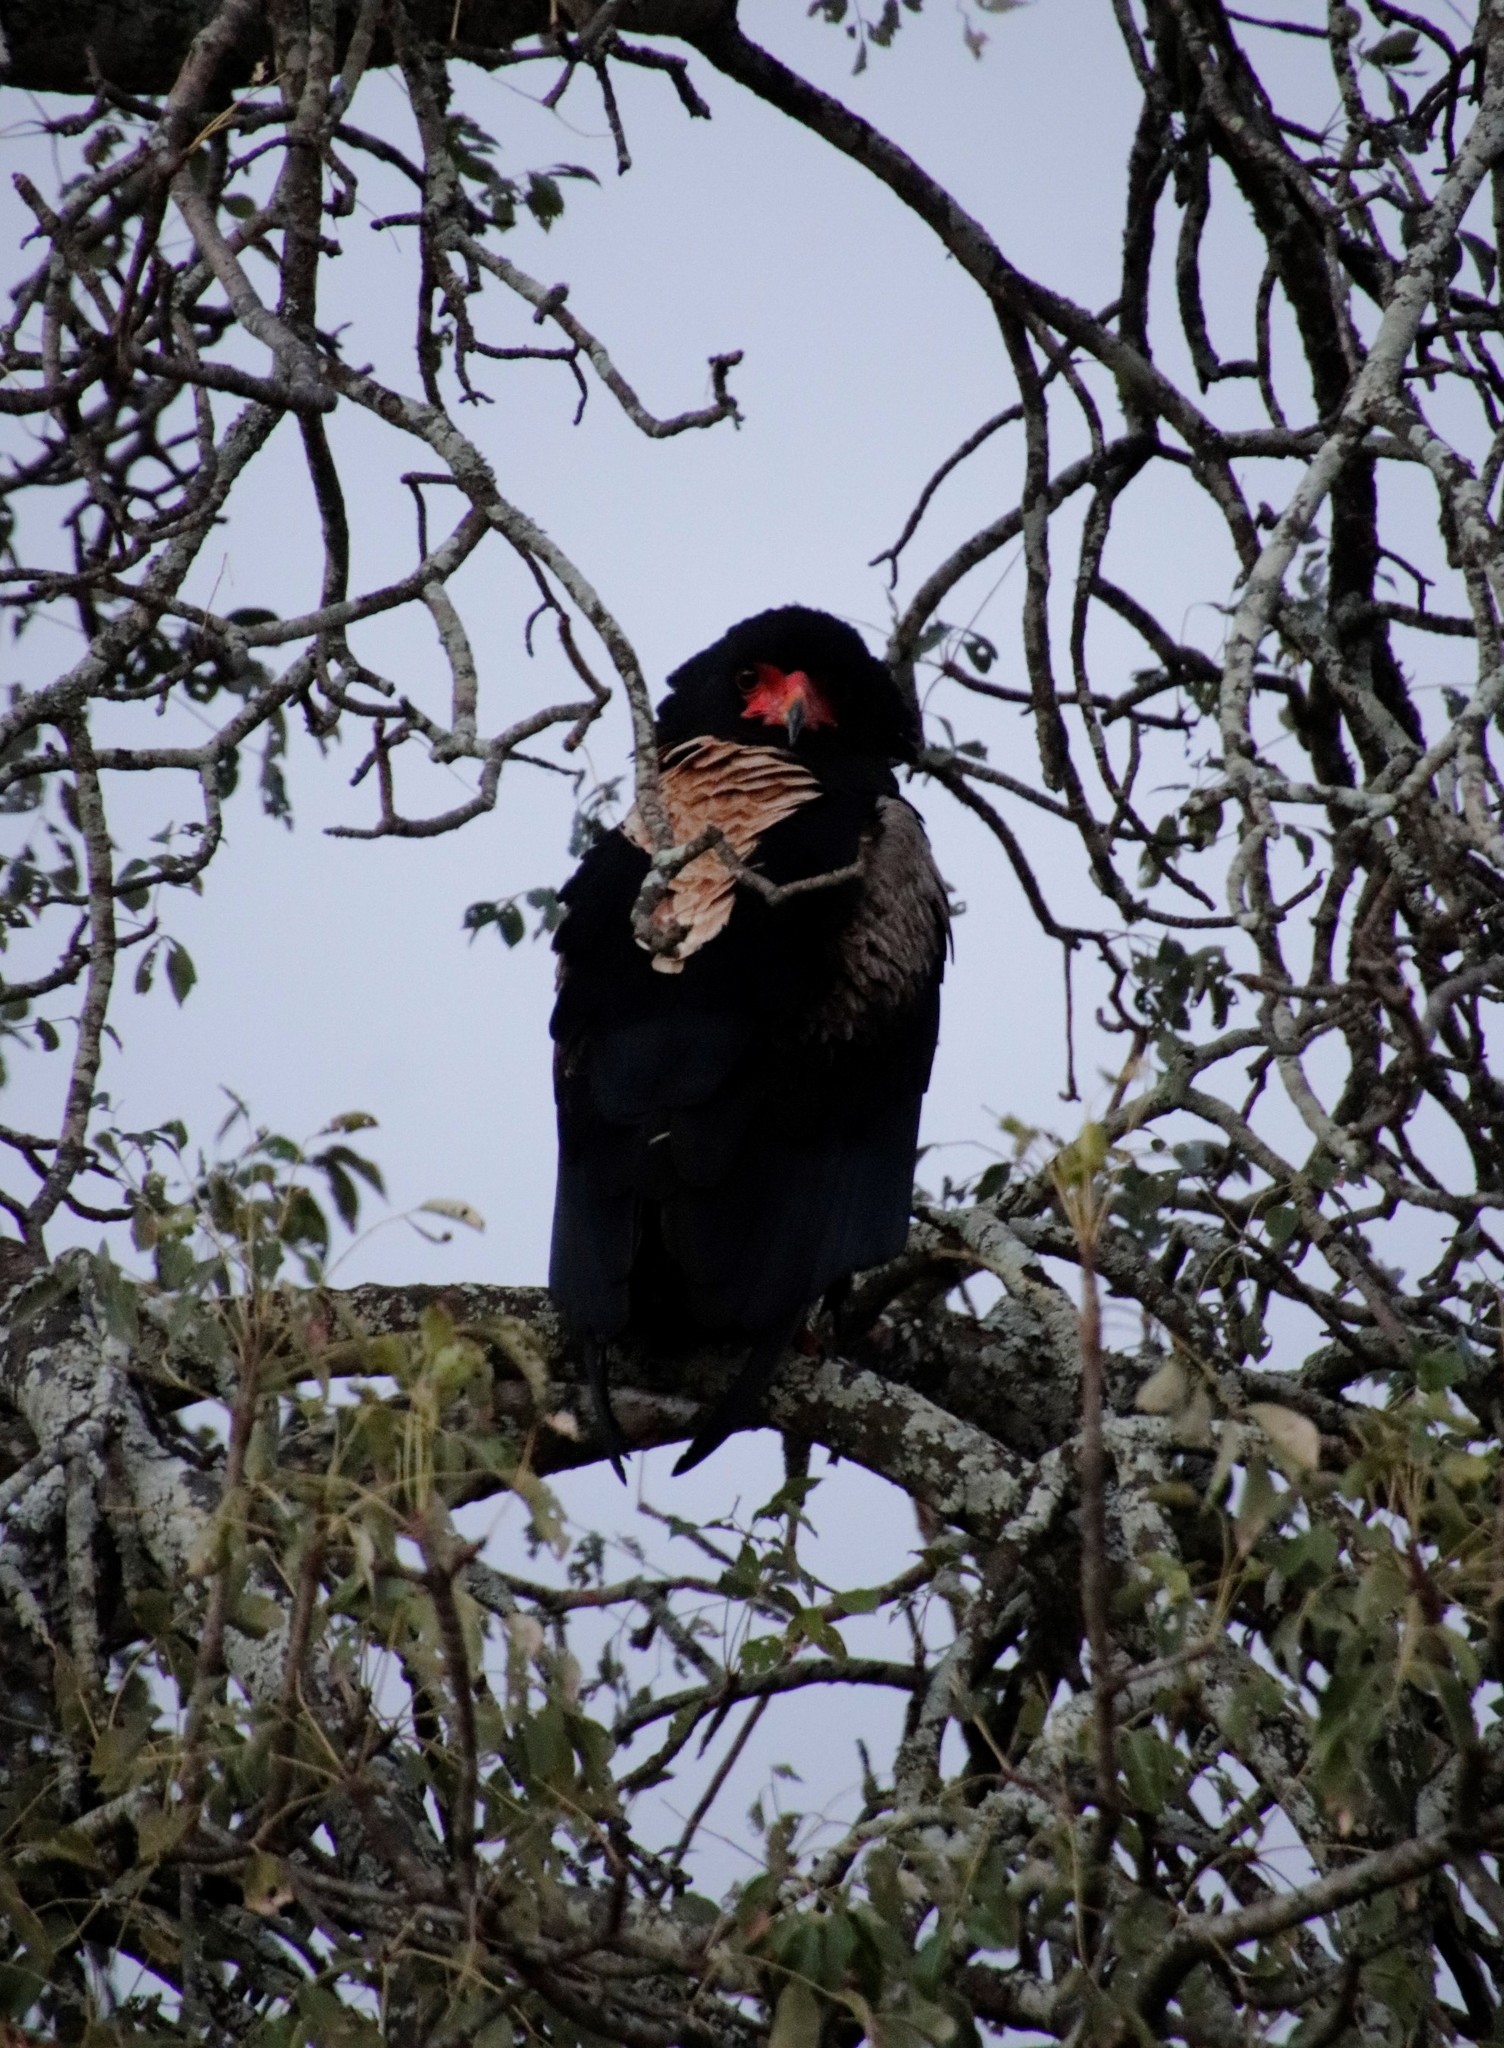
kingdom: Animalia
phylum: Chordata
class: Aves
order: Accipitriformes
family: Accipitridae
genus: Terathopius
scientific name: Terathopius ecaudatus
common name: Bateleur
